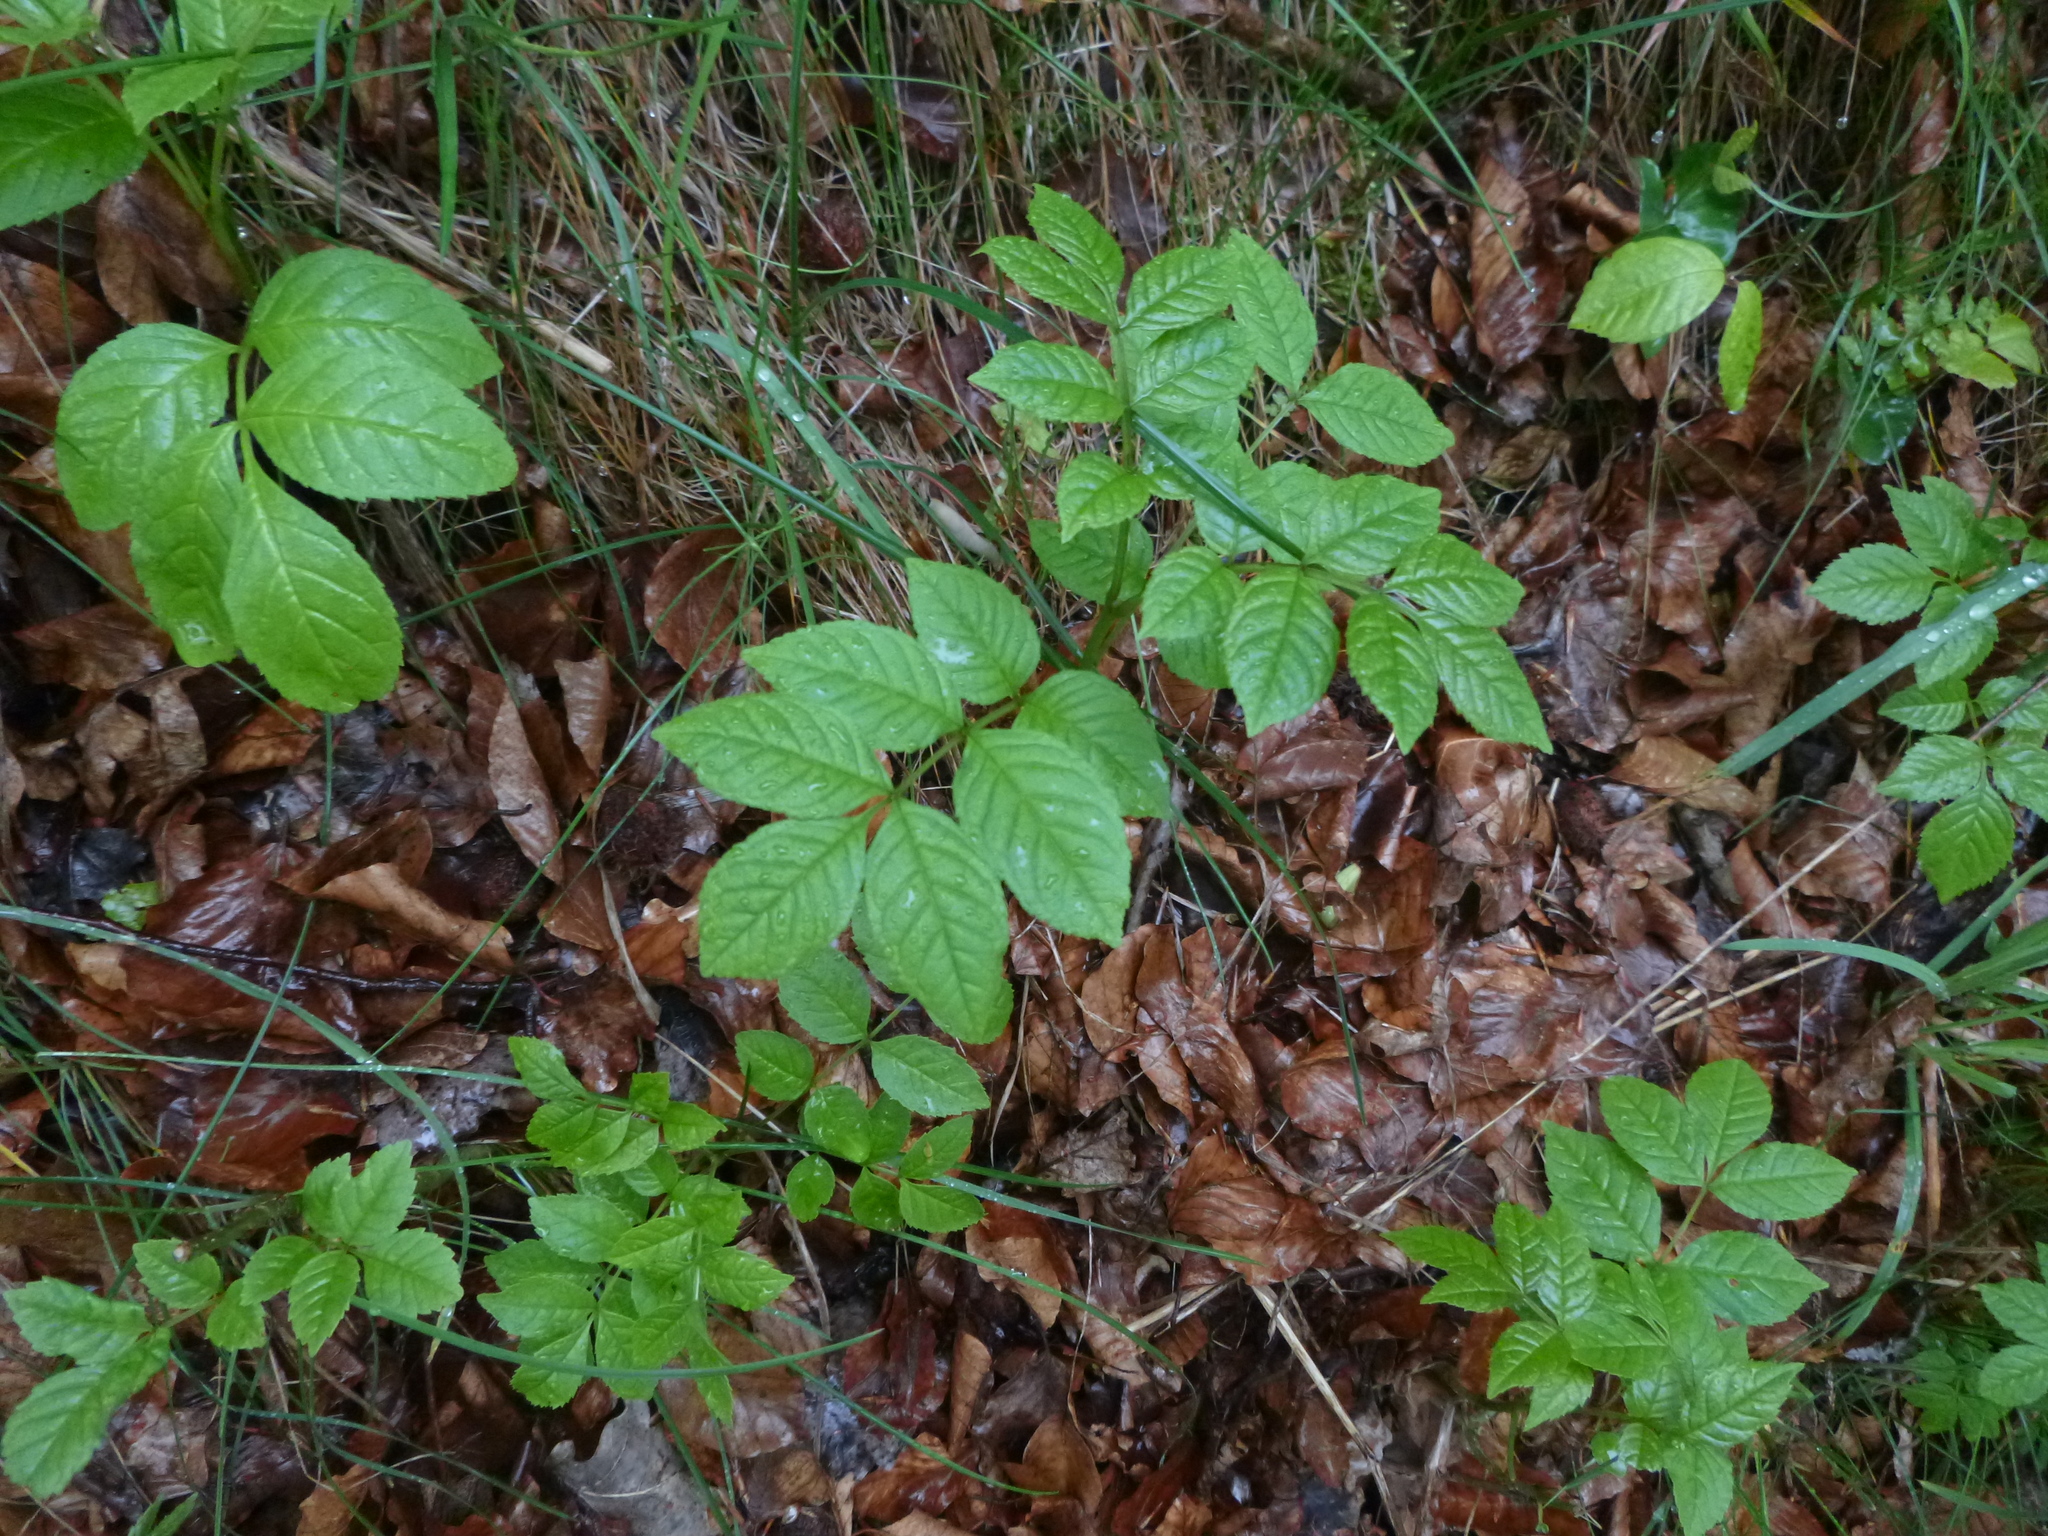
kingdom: Plantae
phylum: Tracheophyta
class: Magnoliopsida
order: Lamiales
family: Oleaceae
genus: Fraxinus
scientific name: Fraxinus excelsior
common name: European ash
